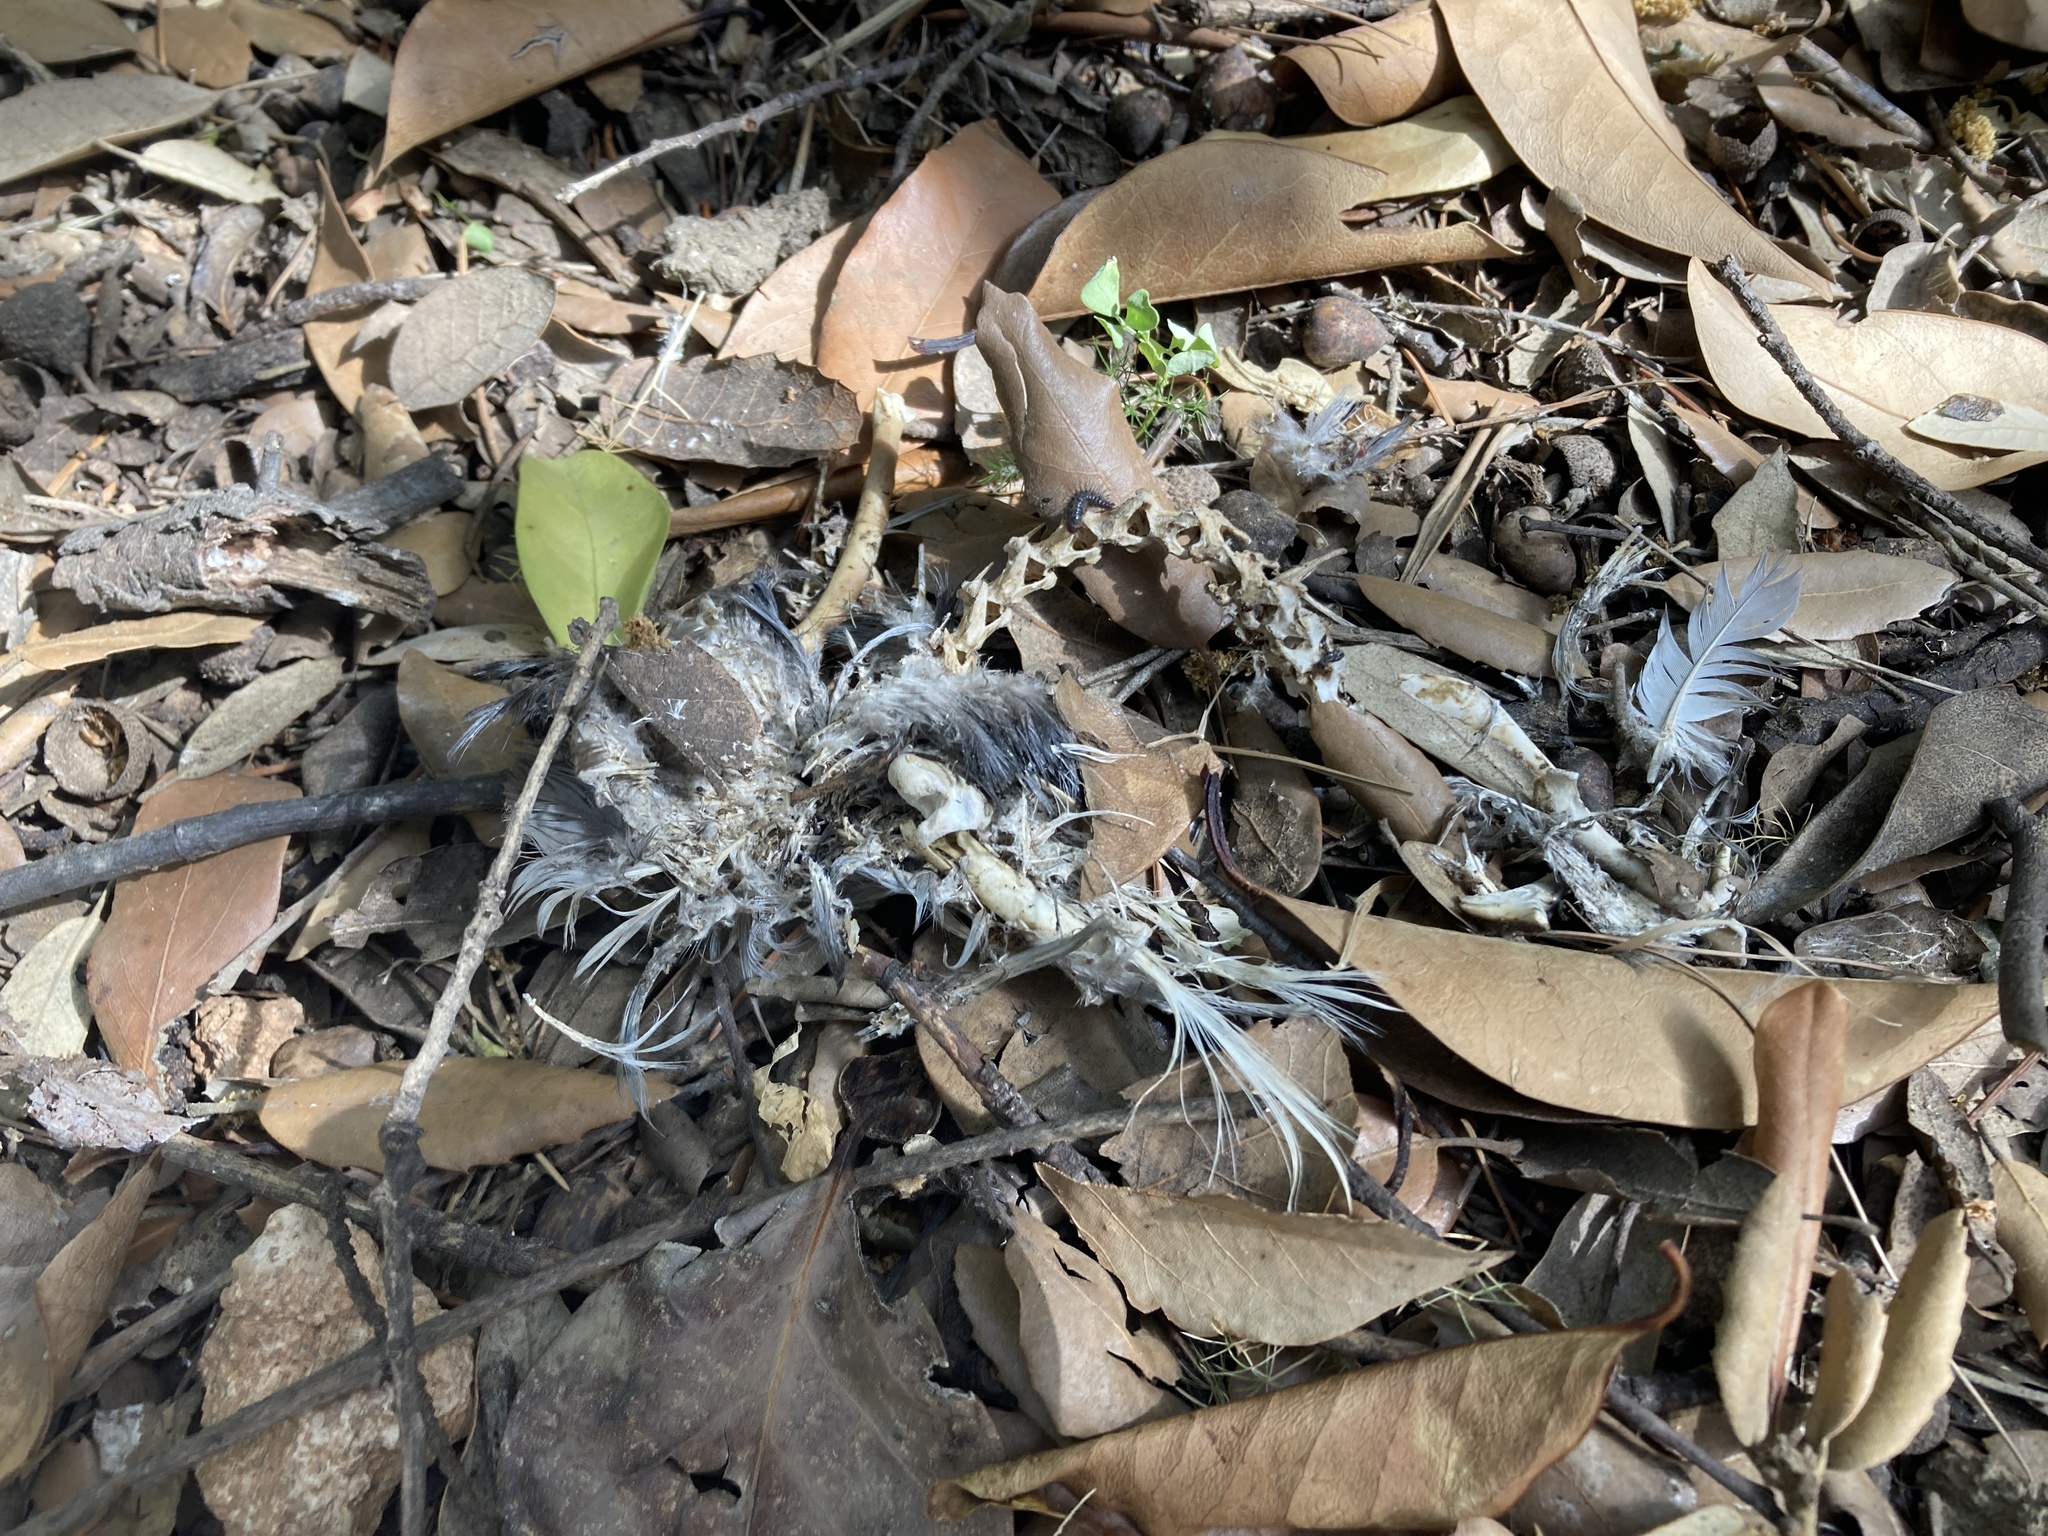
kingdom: Animalia
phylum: Chordata
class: Aves
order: Columbiformes
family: Columbidae
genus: Columba
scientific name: Columba livia
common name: Rock pigeon
